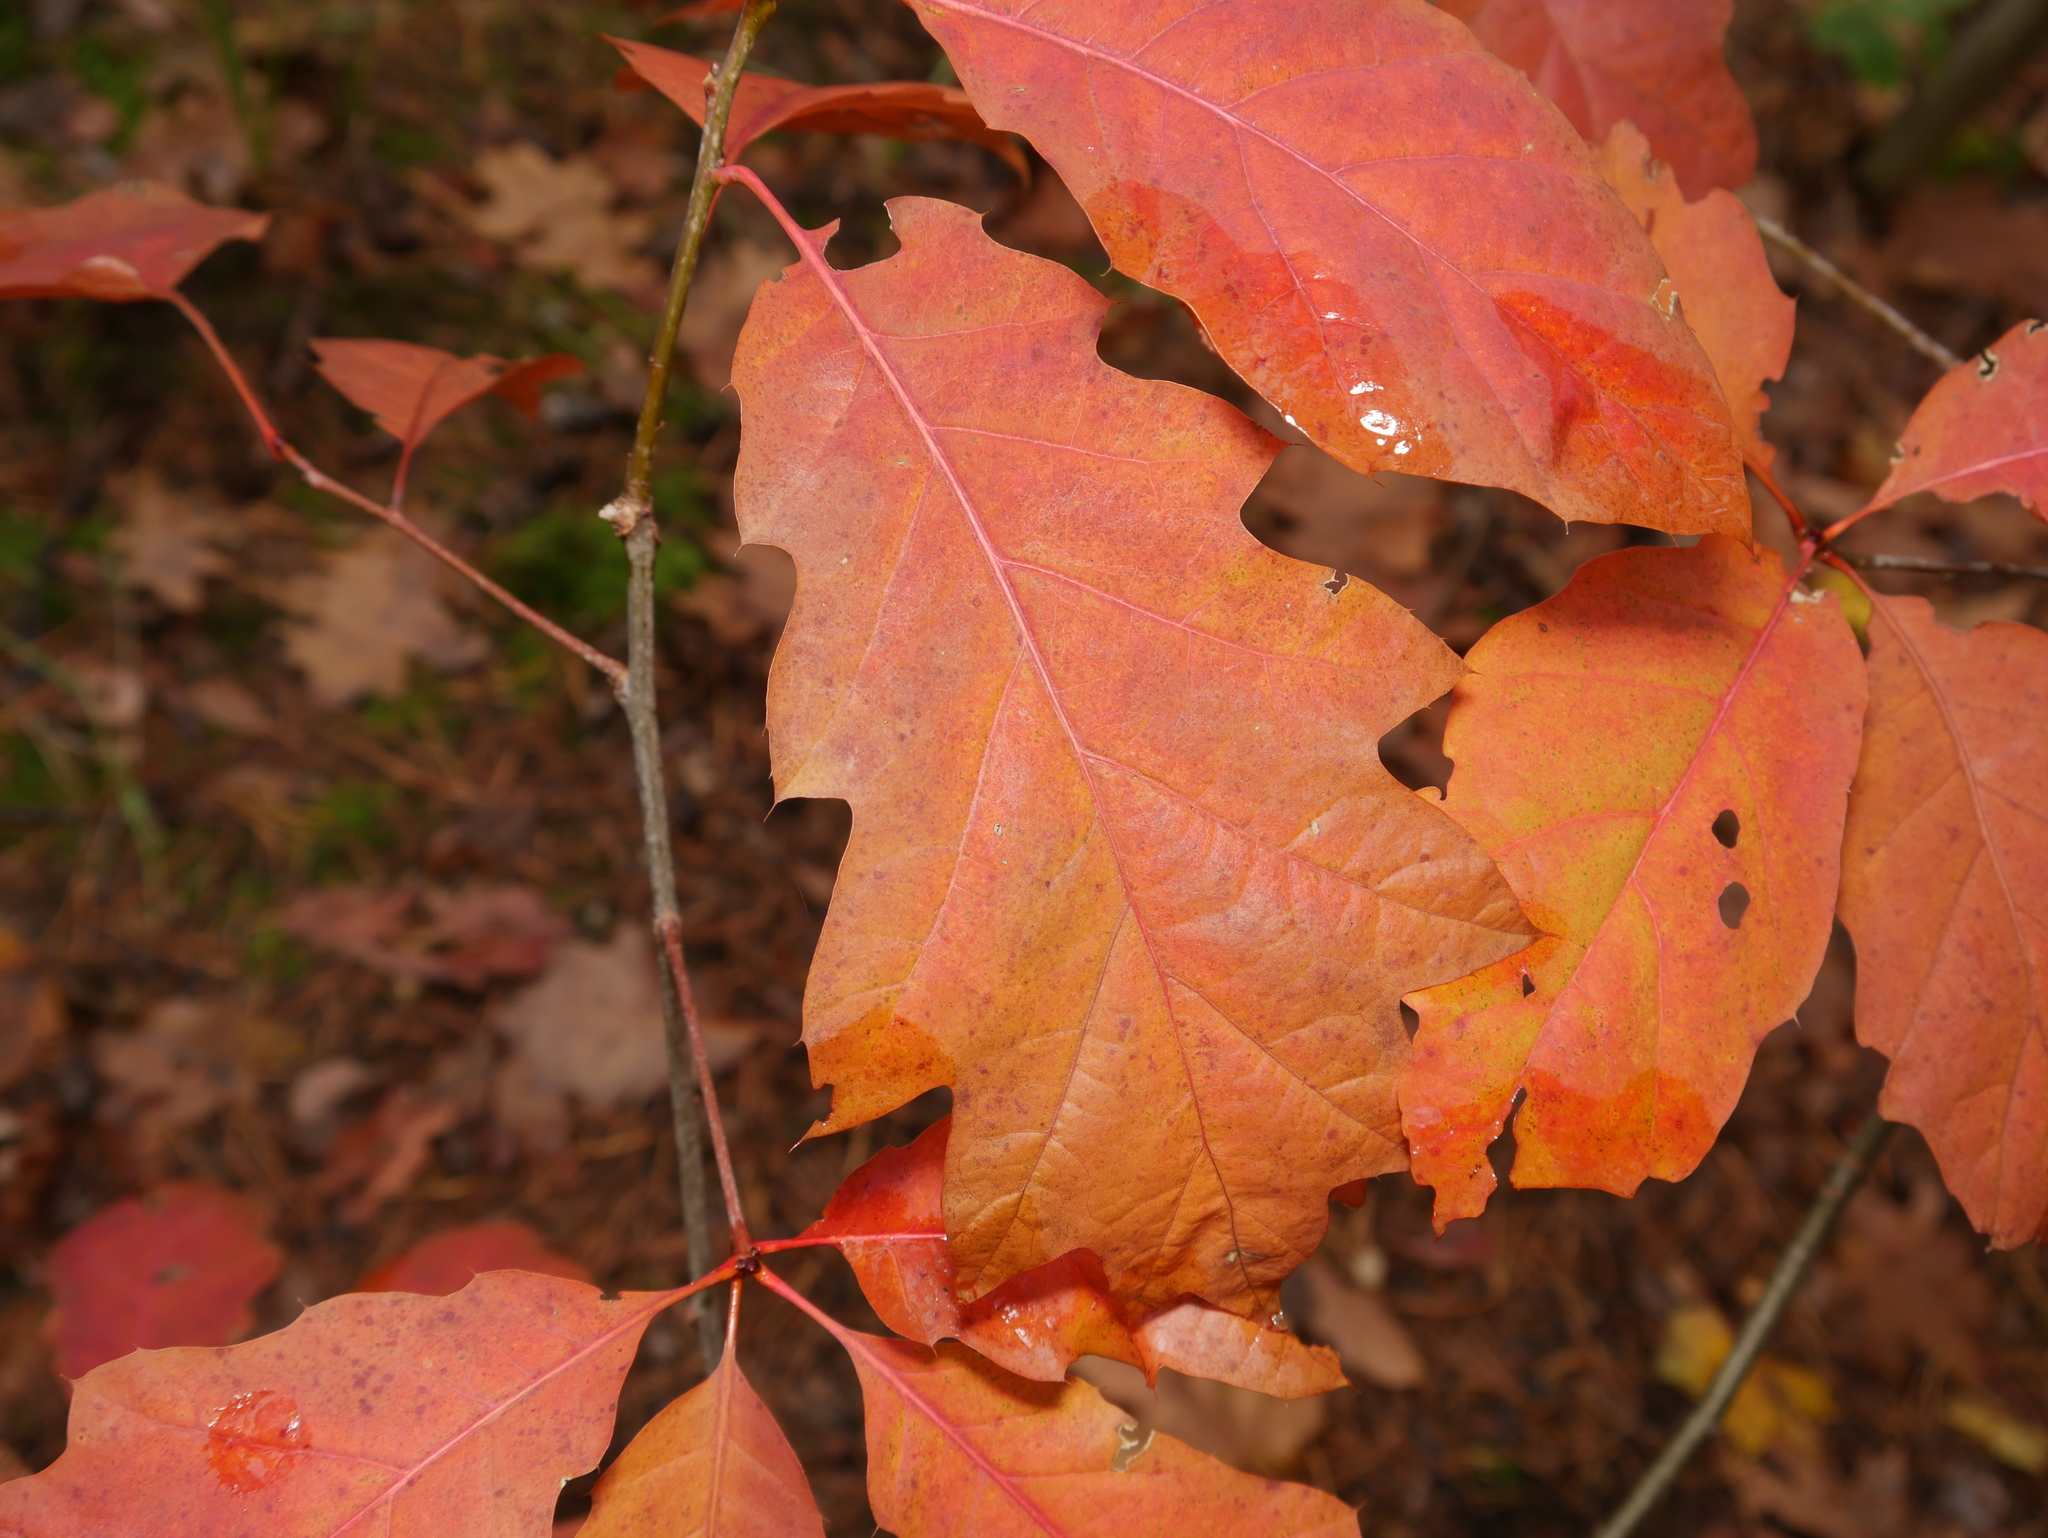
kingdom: Plantae
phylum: Tracheophyta
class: Magnoliopsida
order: Fagales
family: Fagaceae
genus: Quercus
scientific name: Quercus rubra
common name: Red oak
